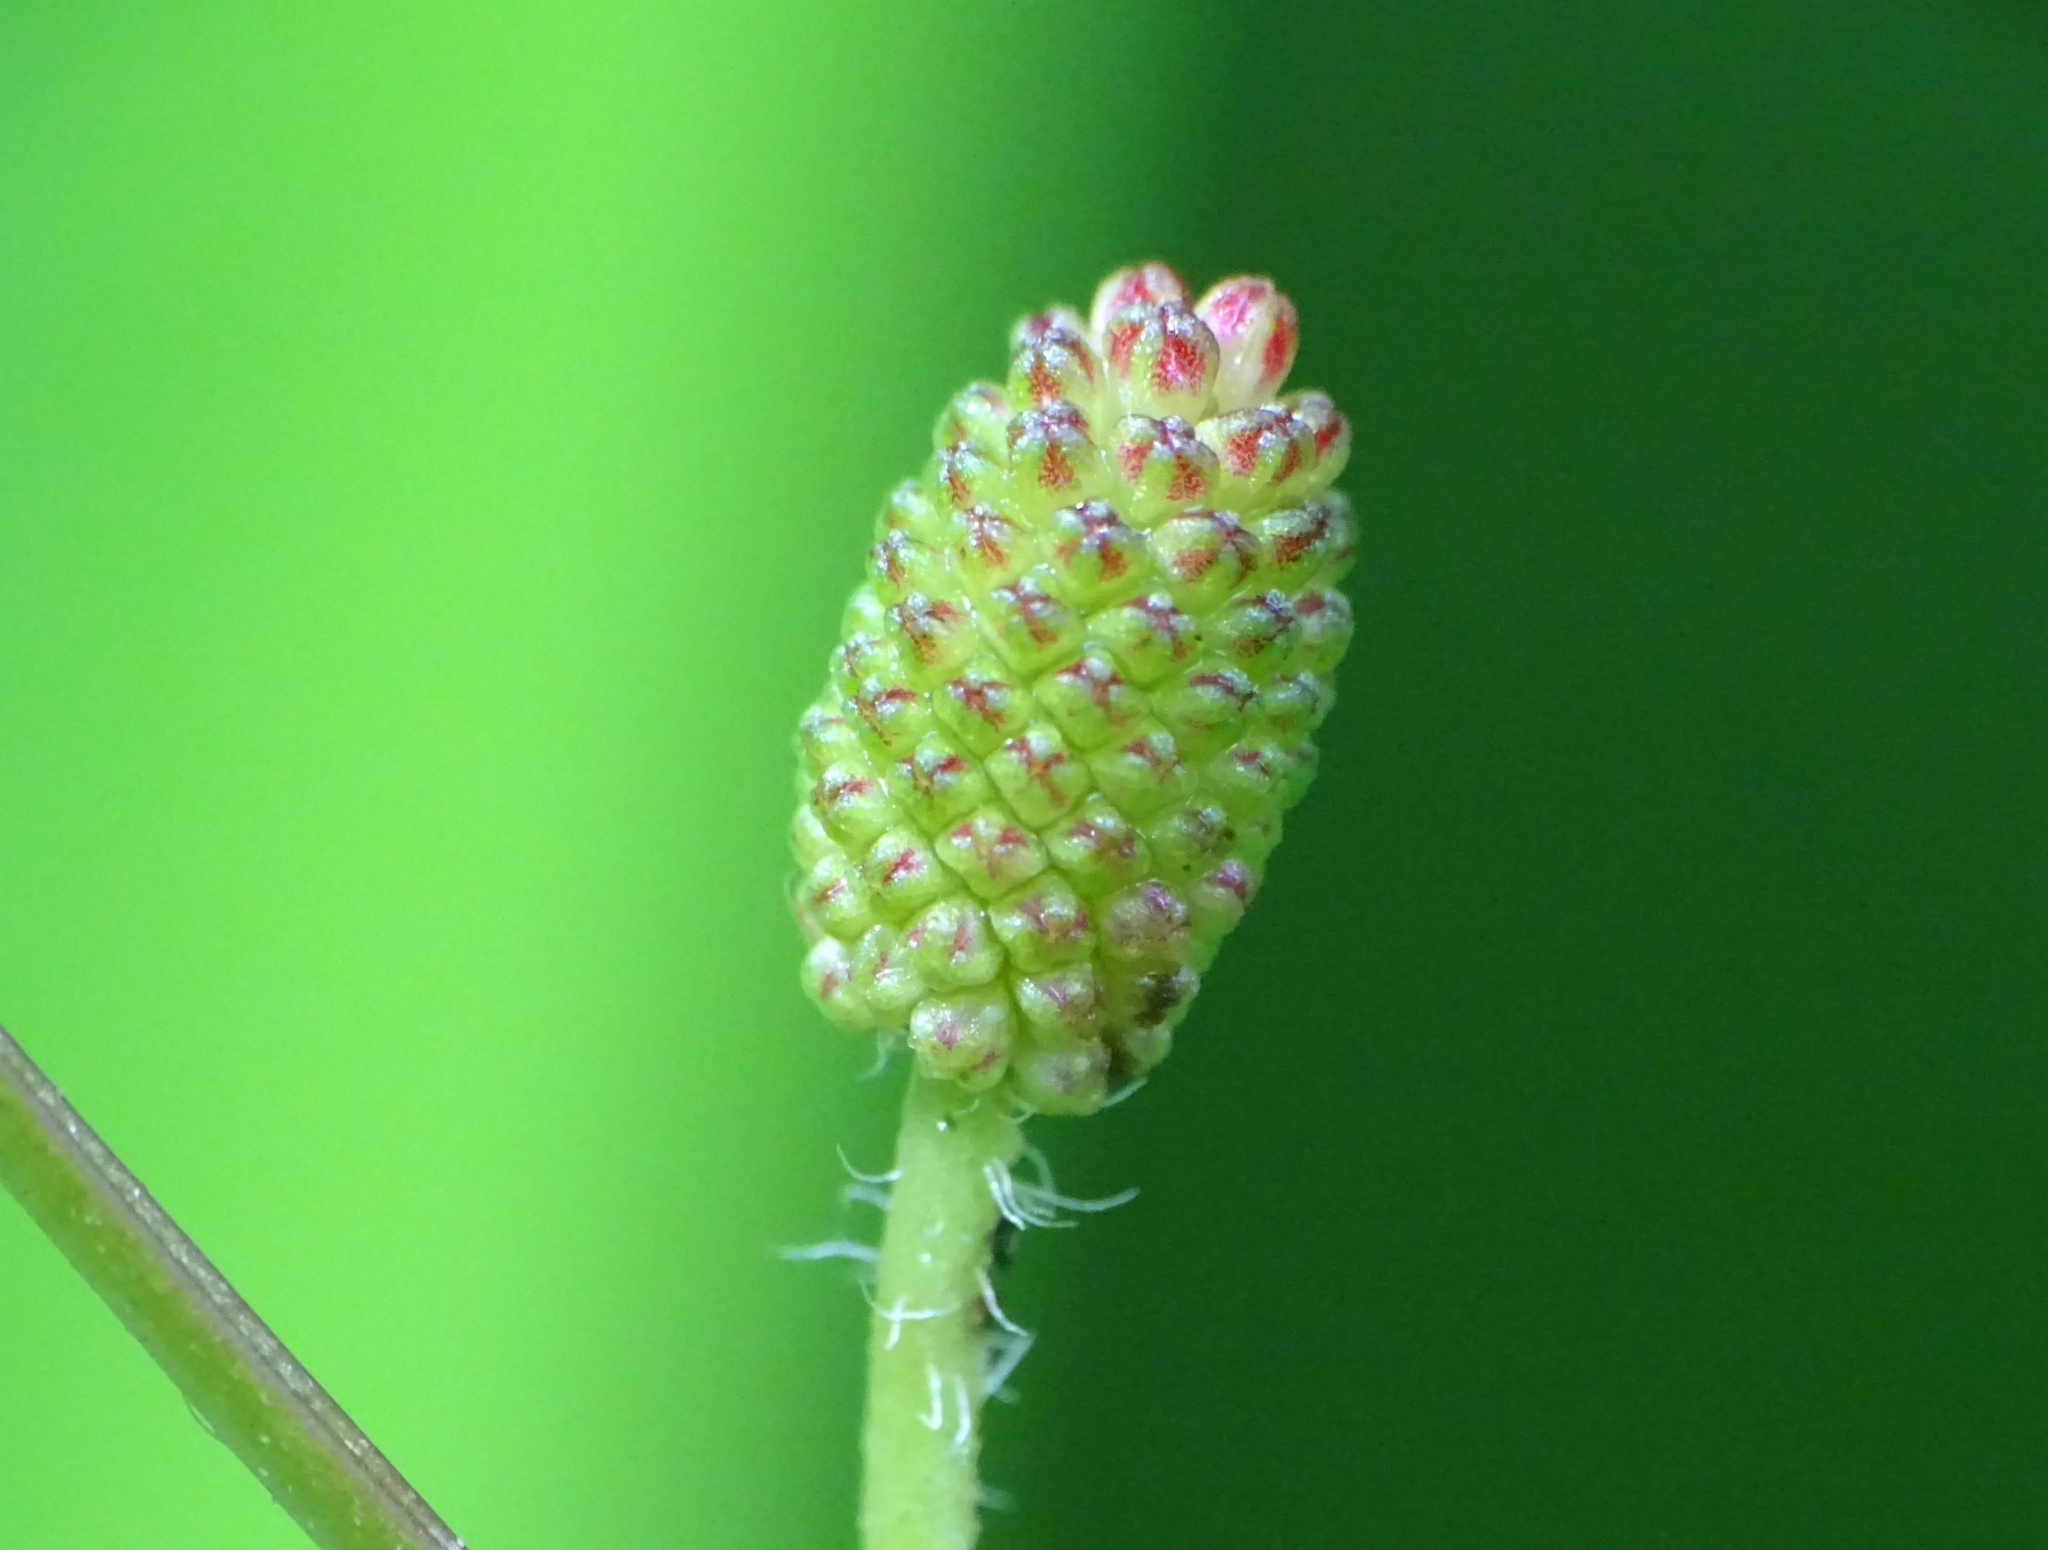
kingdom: Plantae
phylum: Tracheophyta
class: Magnoliopsida
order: Fabales
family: Fabaceae
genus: Mimosa
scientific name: Mimosa diplotricha
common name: Giant sensitive-plant
